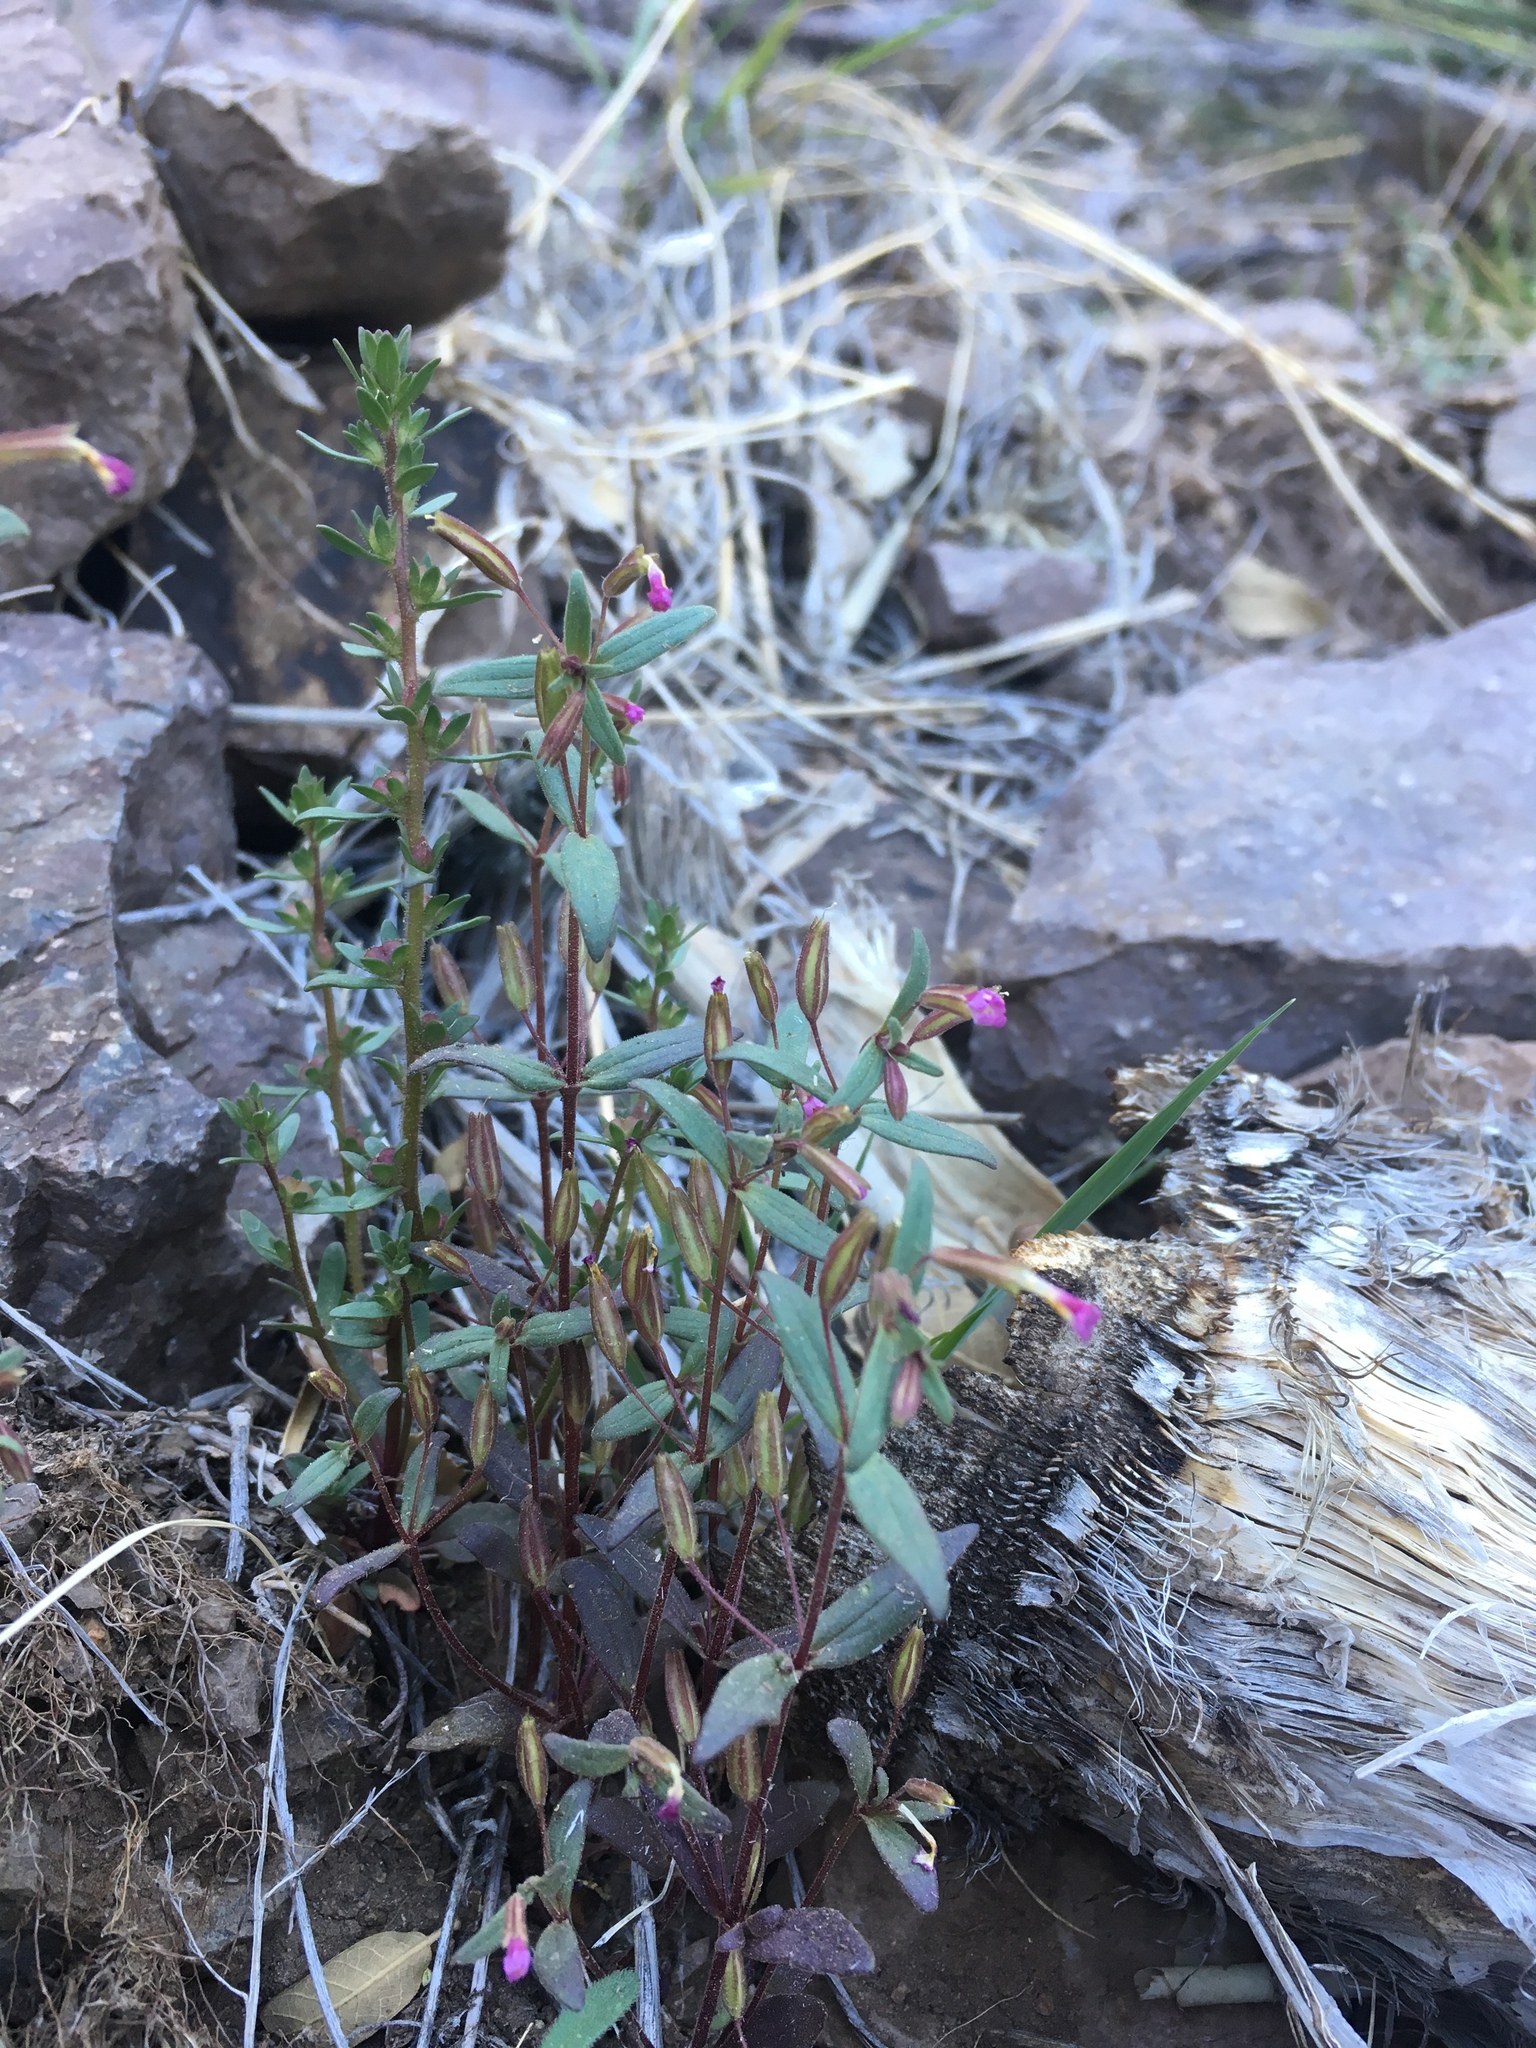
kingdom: Plantae
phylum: Tracheophyta
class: Magnoliopsida
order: Lamiales
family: Phrymaceae
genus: Erythranthe
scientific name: Erythranthe rubella
